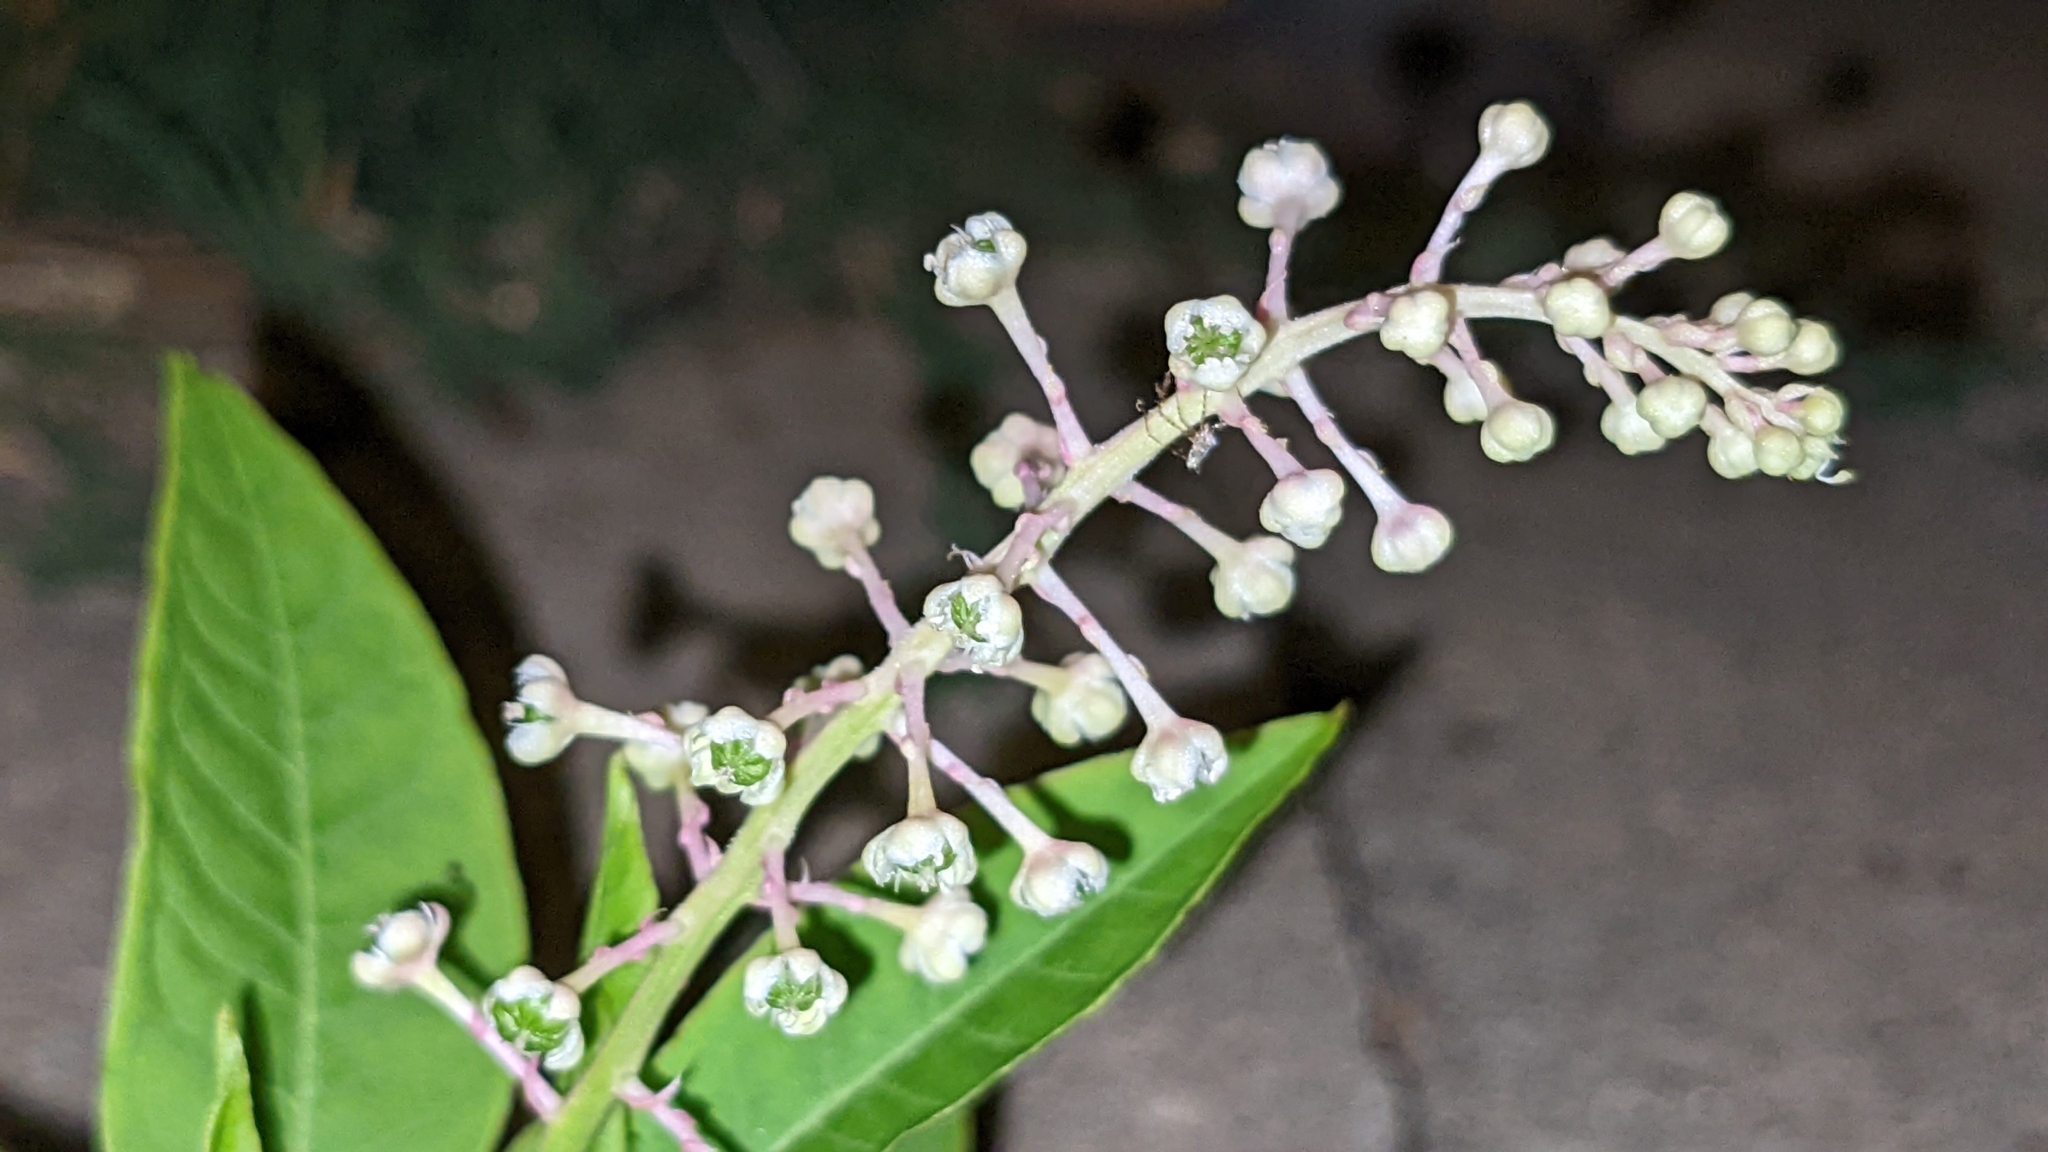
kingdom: Plantae
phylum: Tracheophyta
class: Magnoliopsida
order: Caryophyllales
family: Phytolaccaceae
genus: Phytolacca
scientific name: Phytolacca americana
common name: American pokeweed
